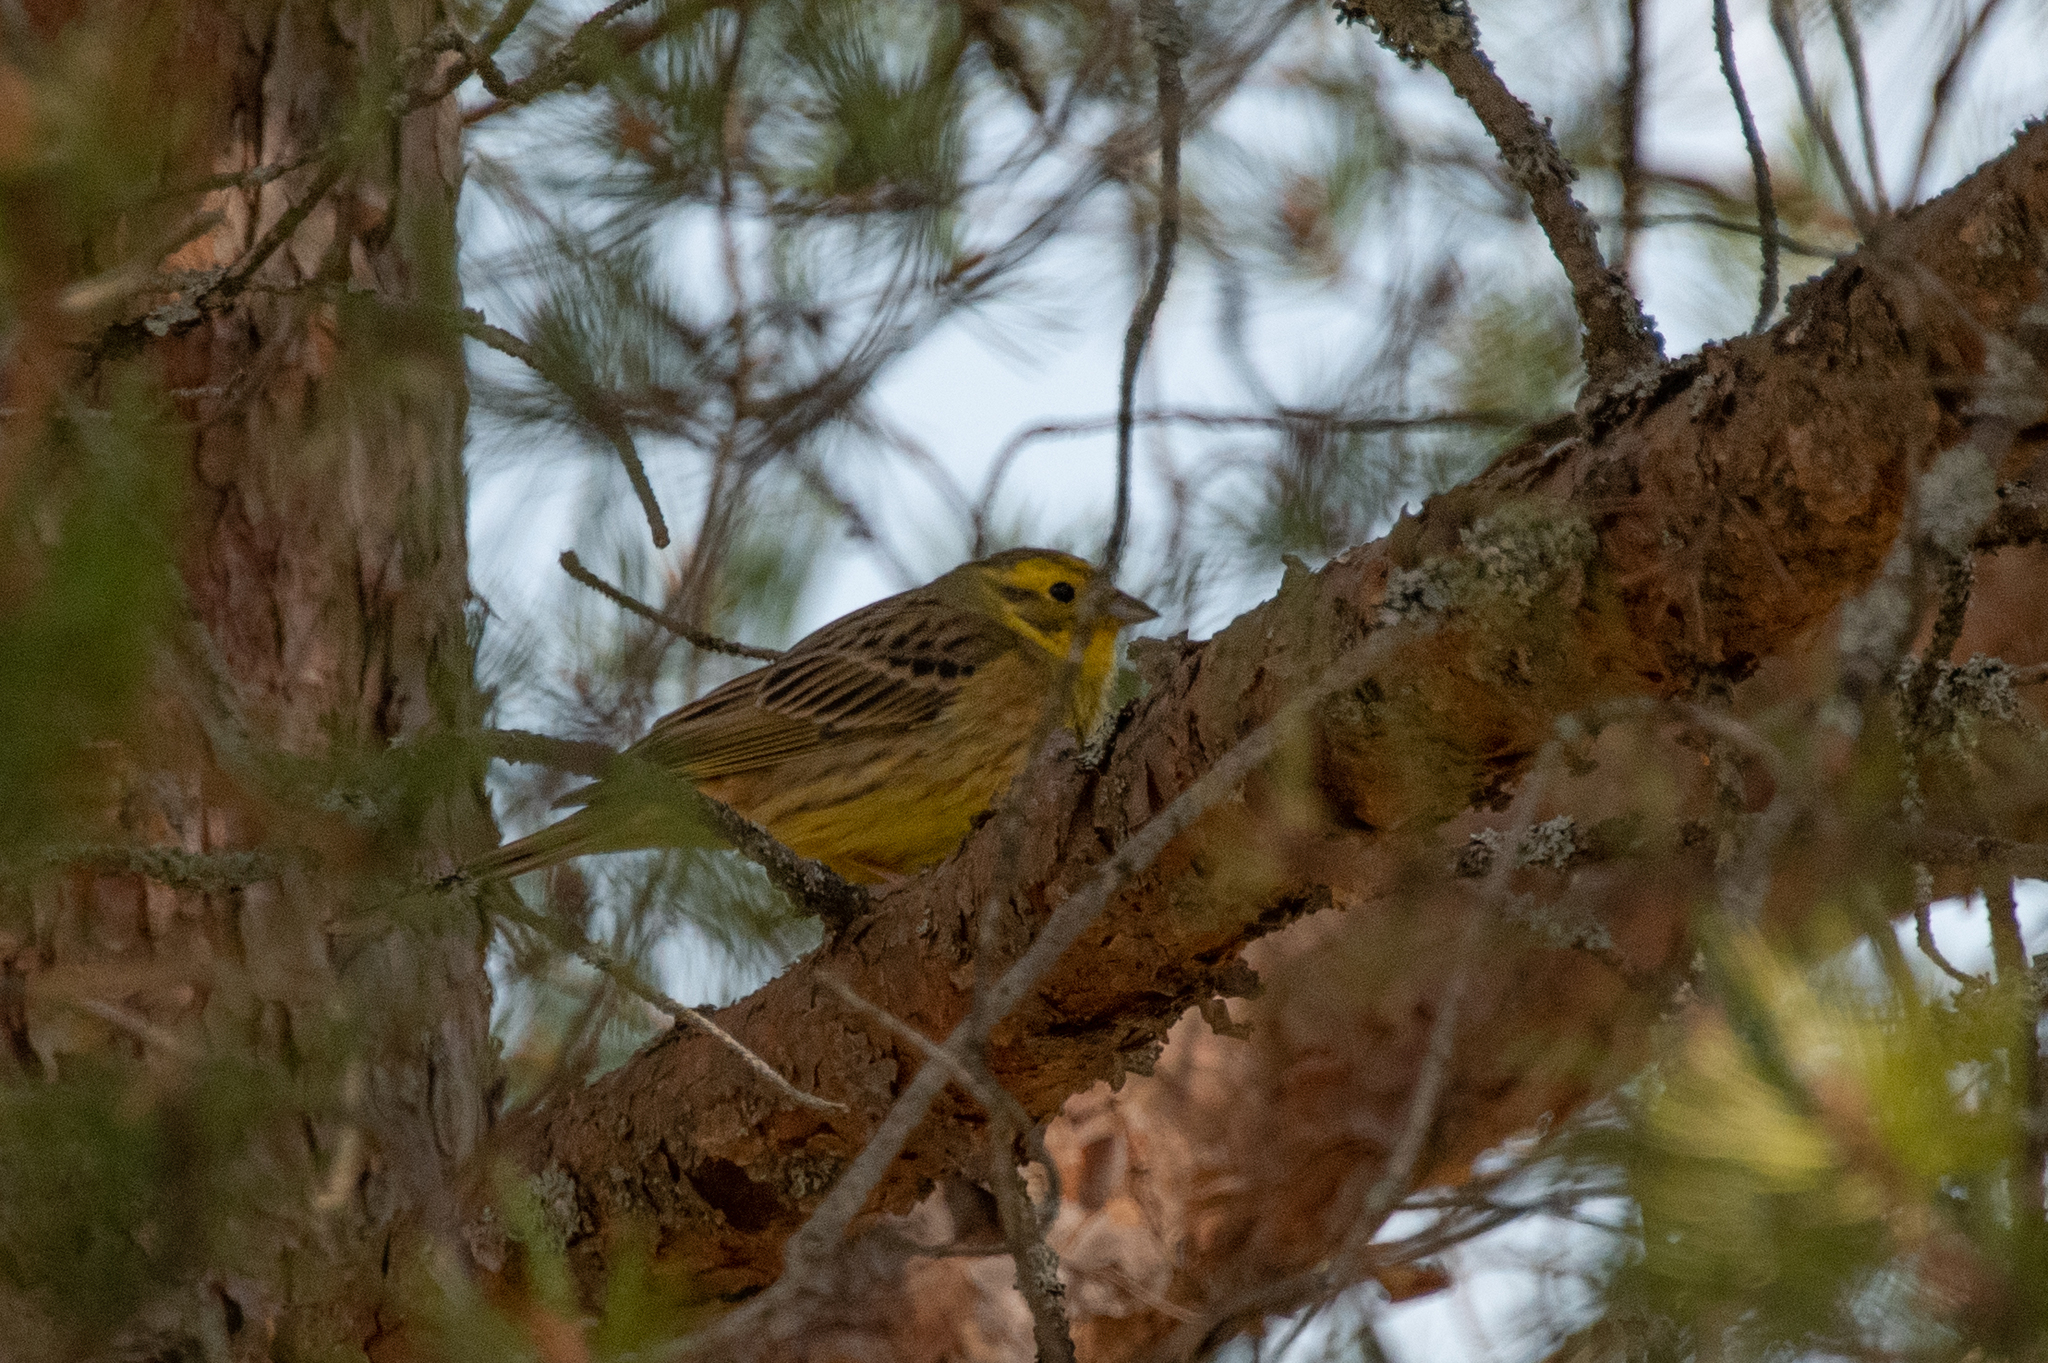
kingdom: Animalia
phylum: Chordata
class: Aves
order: Passeriformes
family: Emberizidae
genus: Emberiza
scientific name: Emberiza citrinella
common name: Yellowhammer
